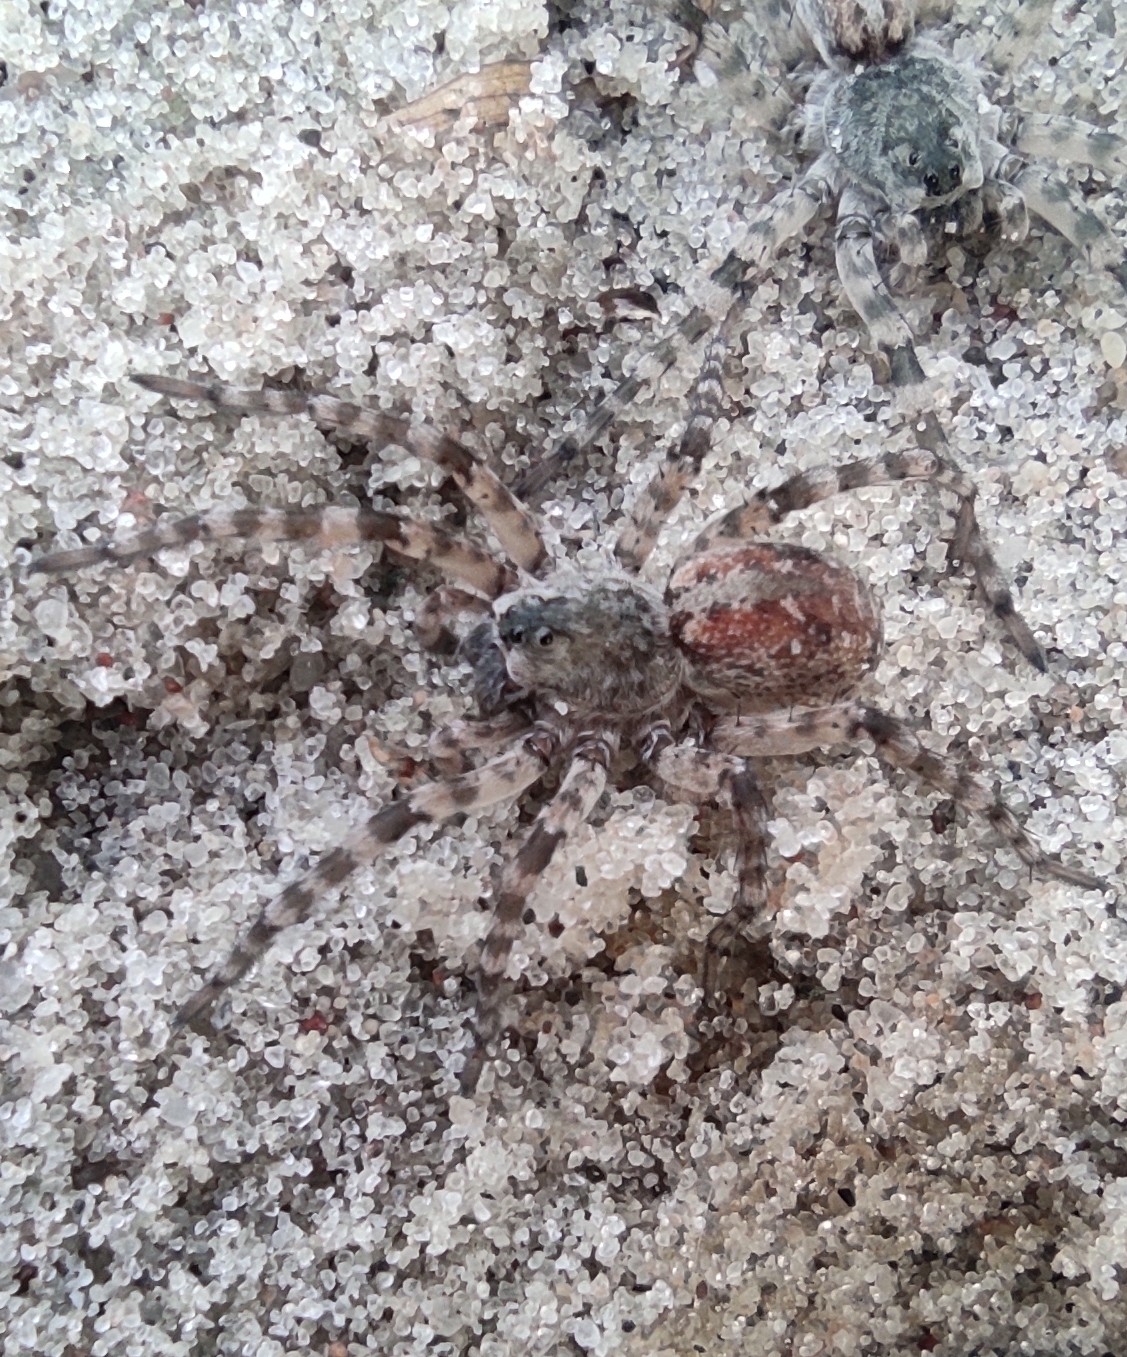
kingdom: Animalia
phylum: Arthropoda
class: Arachnida
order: Araneae
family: Lycosidae
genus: Arctosa
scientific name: Arctosa cinerea
